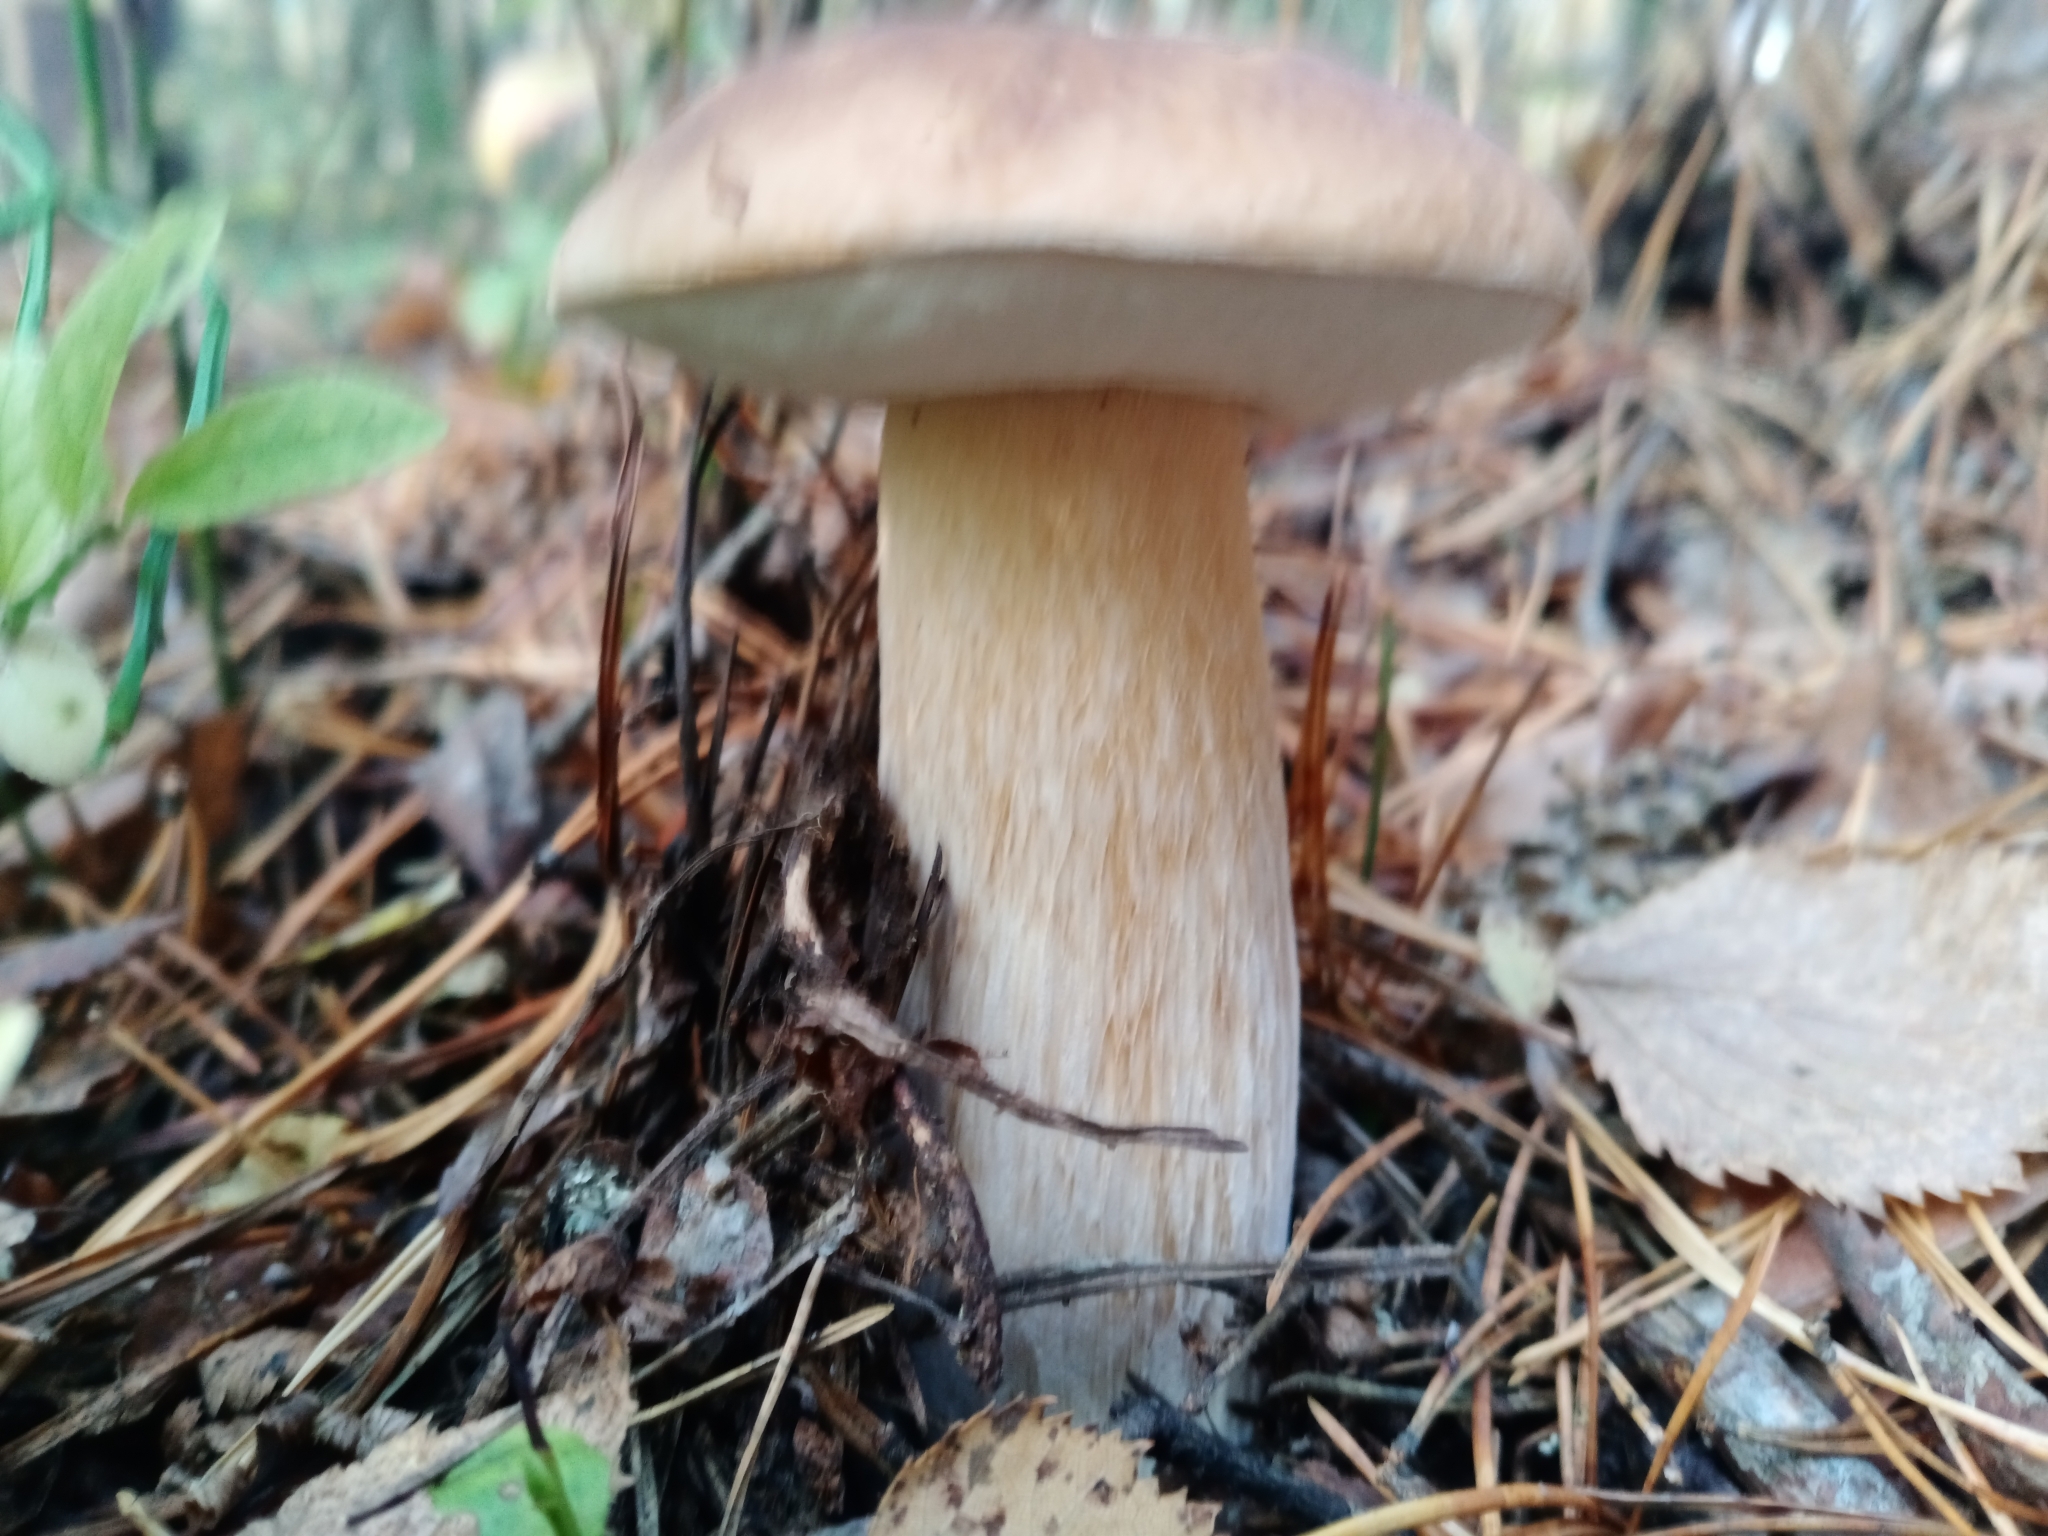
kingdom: Fungi
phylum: Basidiomycota
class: Agaricomycetes
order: Boletales
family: Boletaceae
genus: Boletus
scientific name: Boletus edulis
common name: Cep
